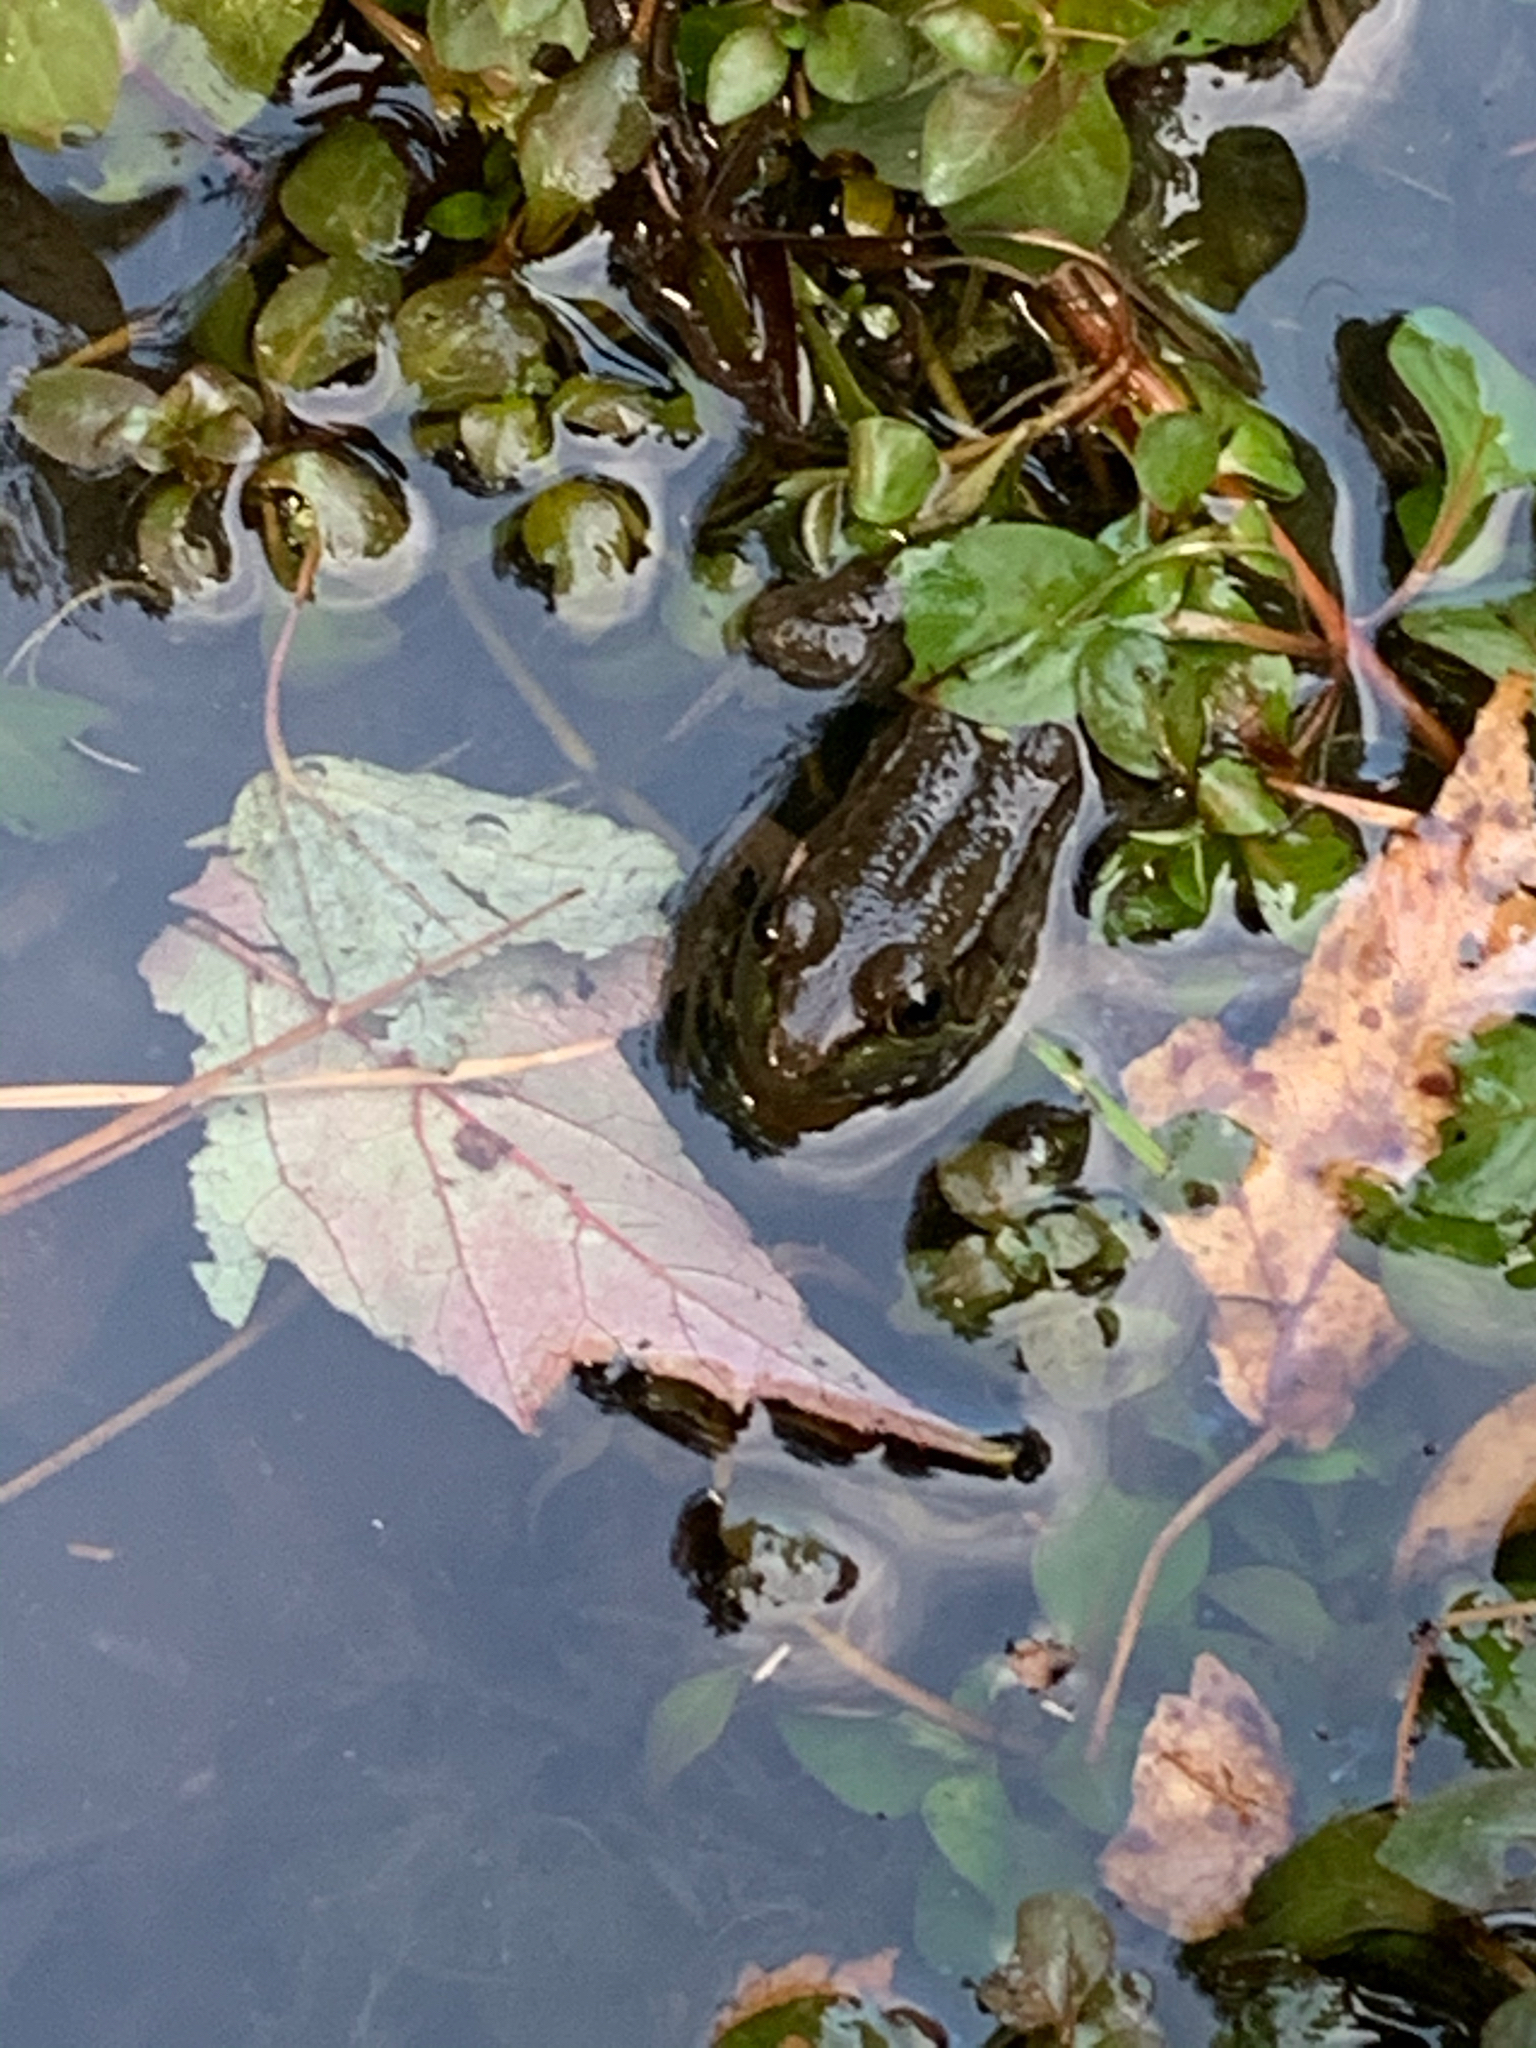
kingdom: Animalia
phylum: Chordata
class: Amphibia
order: Anura
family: Ranidae
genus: Lithobates
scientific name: Lithobates clamitans
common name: Green frog
